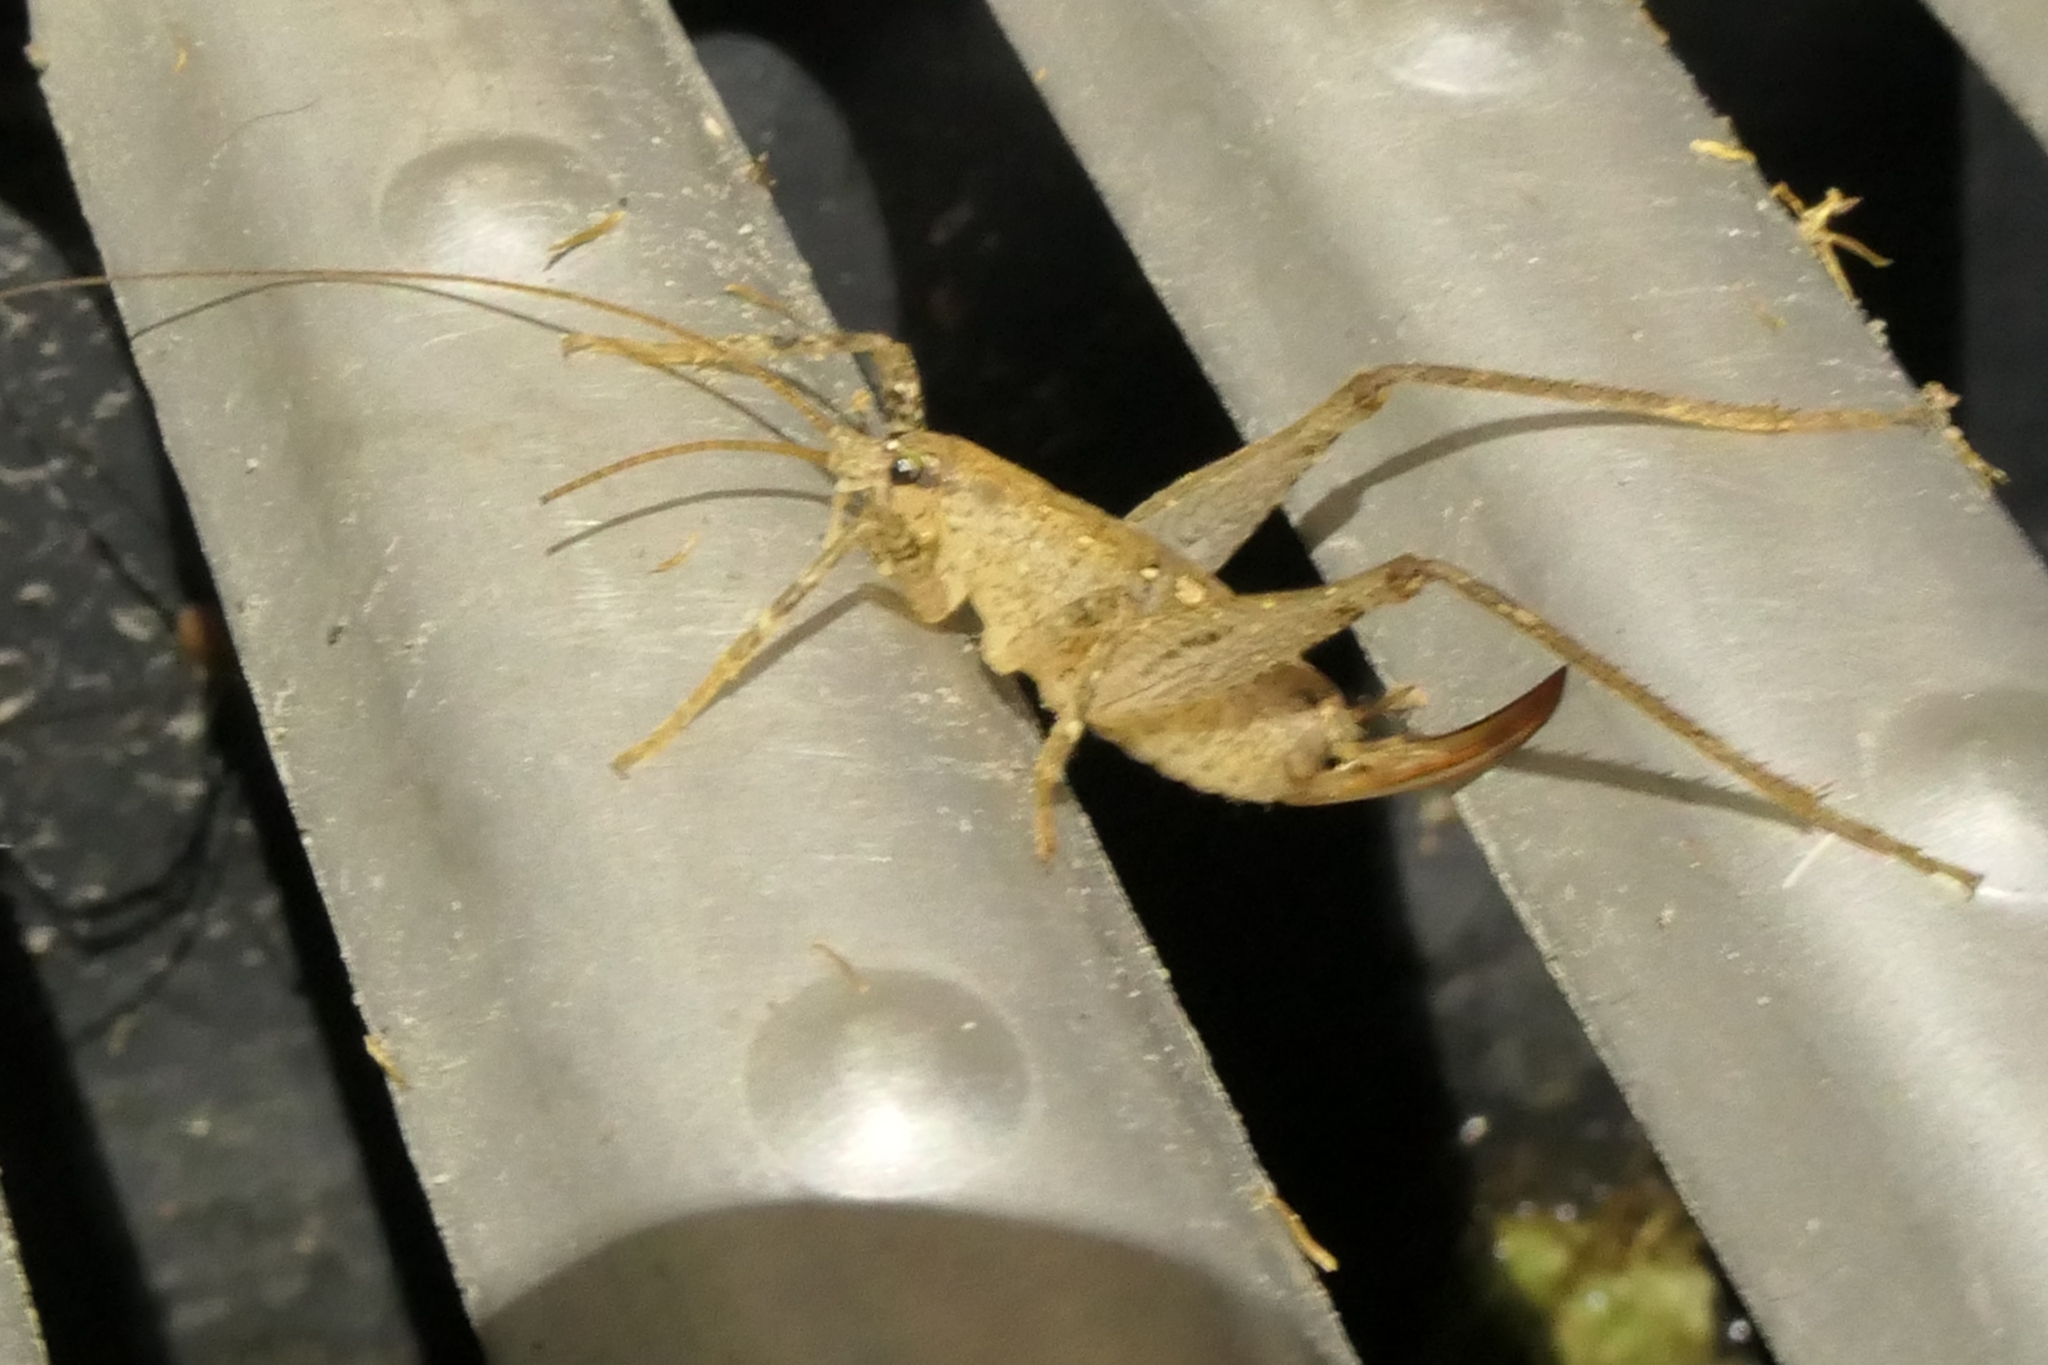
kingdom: Animalia
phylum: Arthropoda
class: Insecta
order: Orthoptera
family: Rhaphidophoridae
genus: Isoplectron
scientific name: Isoplectron armatum
